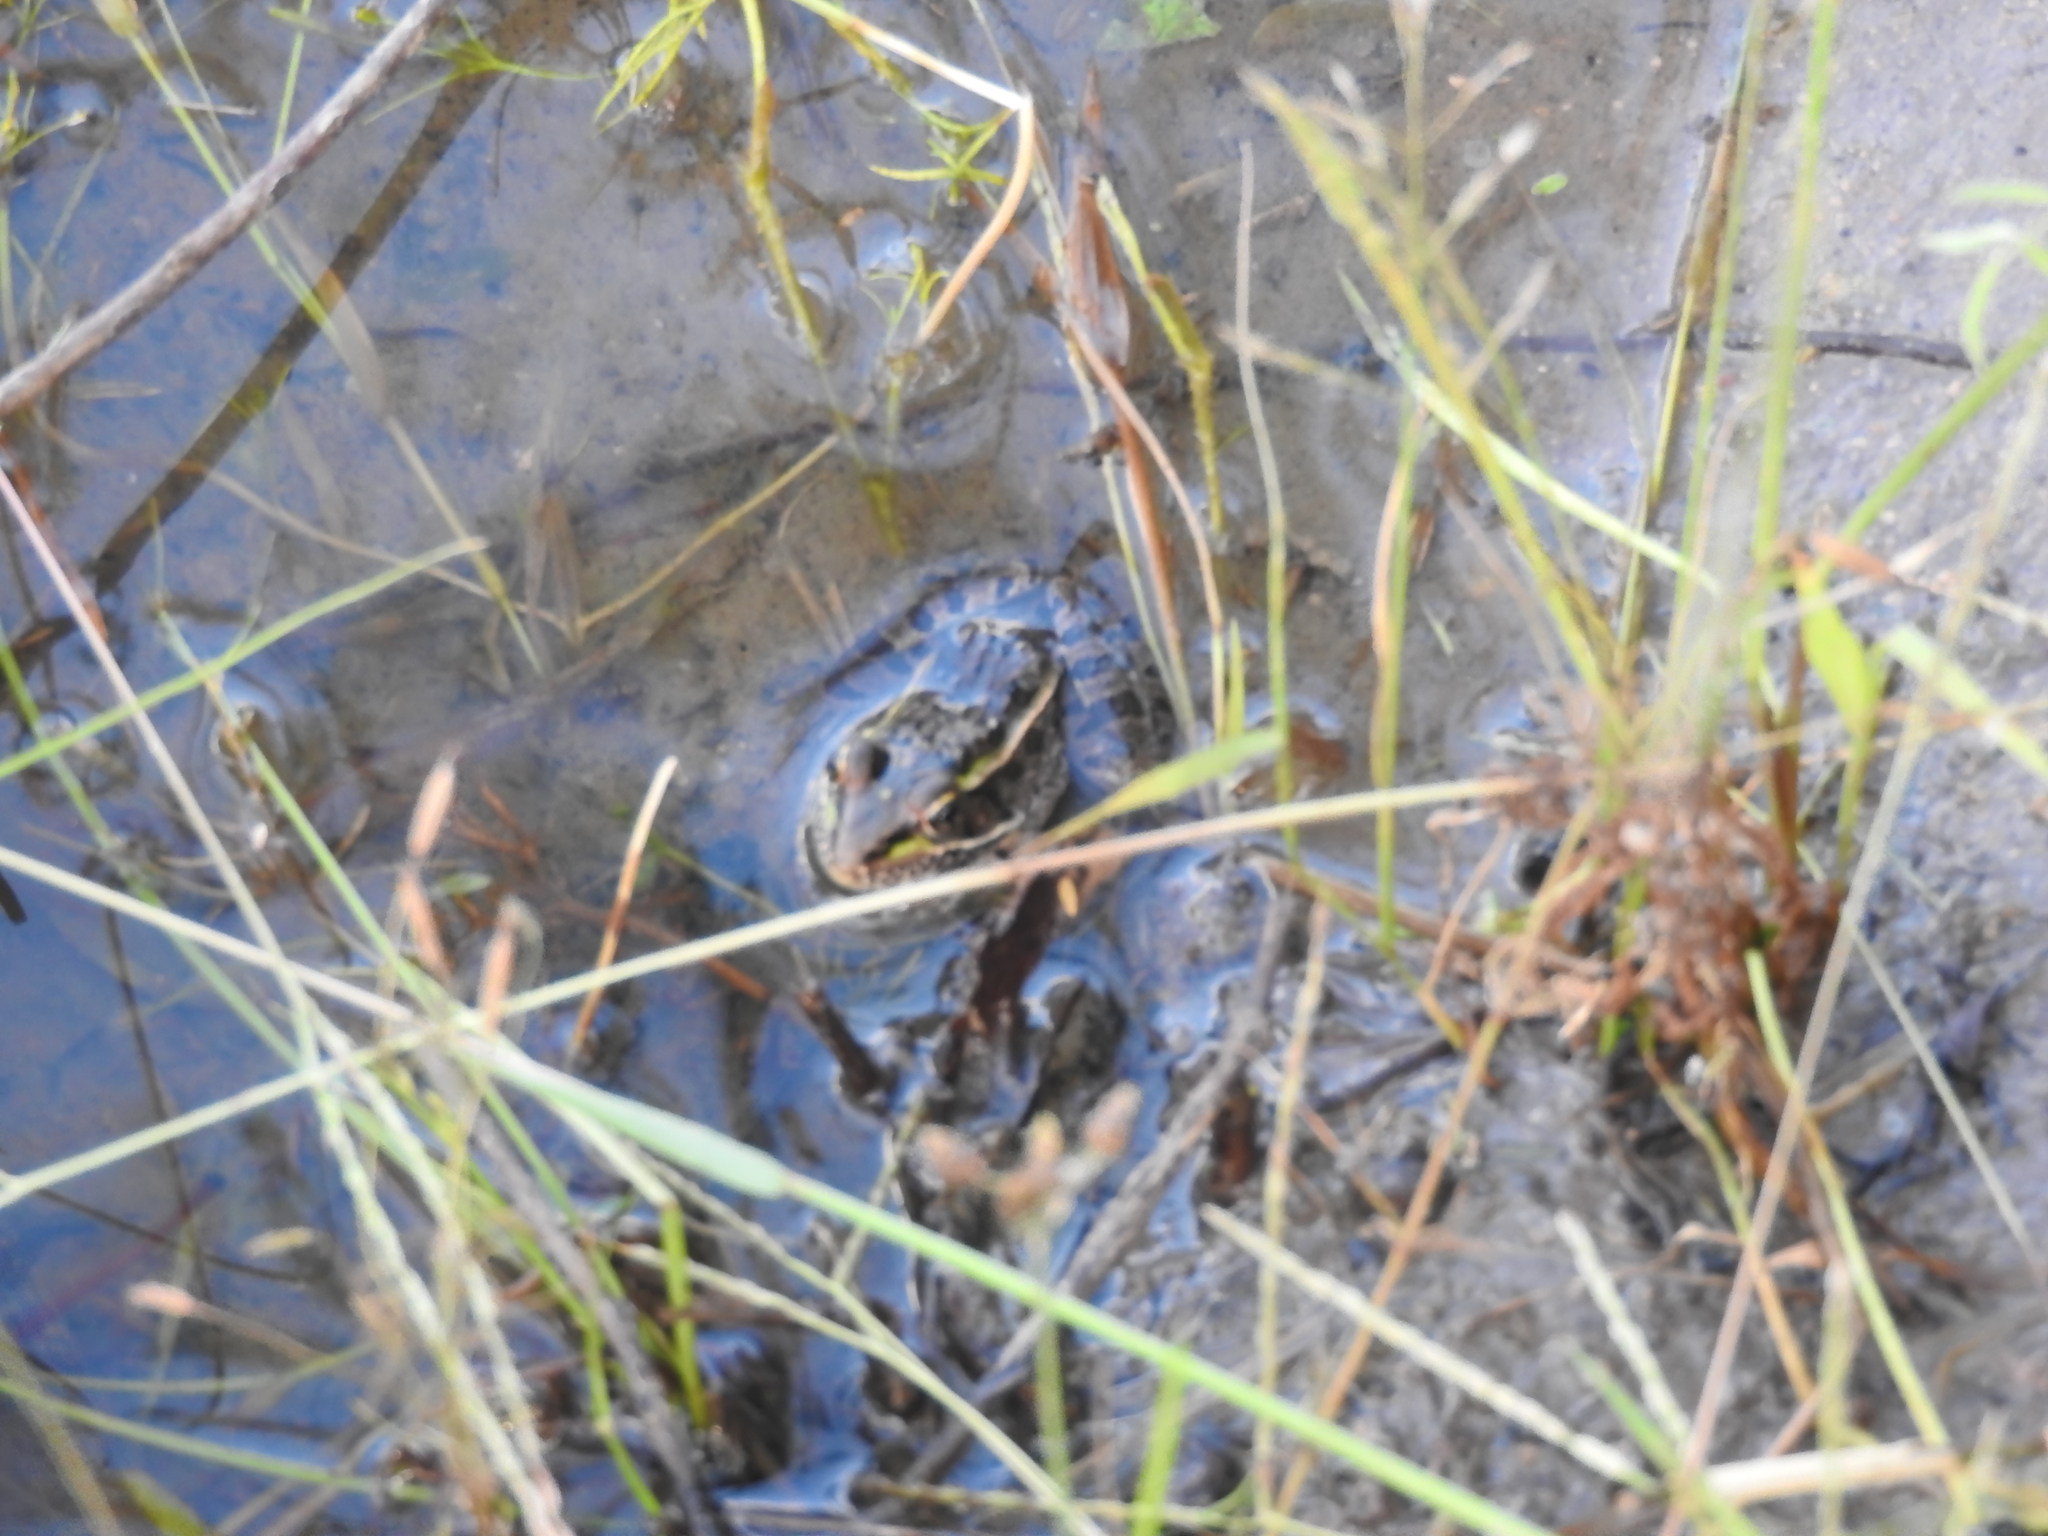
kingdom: Animalia
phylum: Chordata
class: Amphibia
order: Anura
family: Ranidae
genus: Lithobates
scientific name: Lithobates neovolcanicus
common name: Transverse volcanic leopard frog
